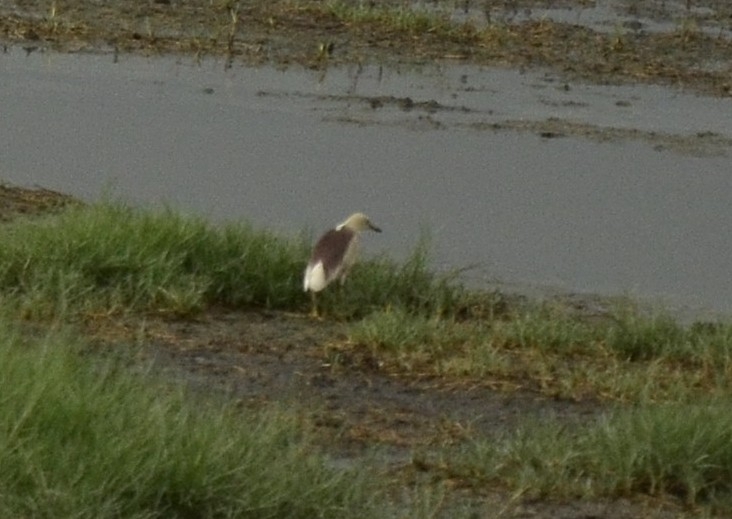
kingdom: Animalia
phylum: Chordata
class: Aves
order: Pelecaniformes
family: Ardeidae
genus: Ardeola
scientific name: Ardeola grayii
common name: Indian pond heron
